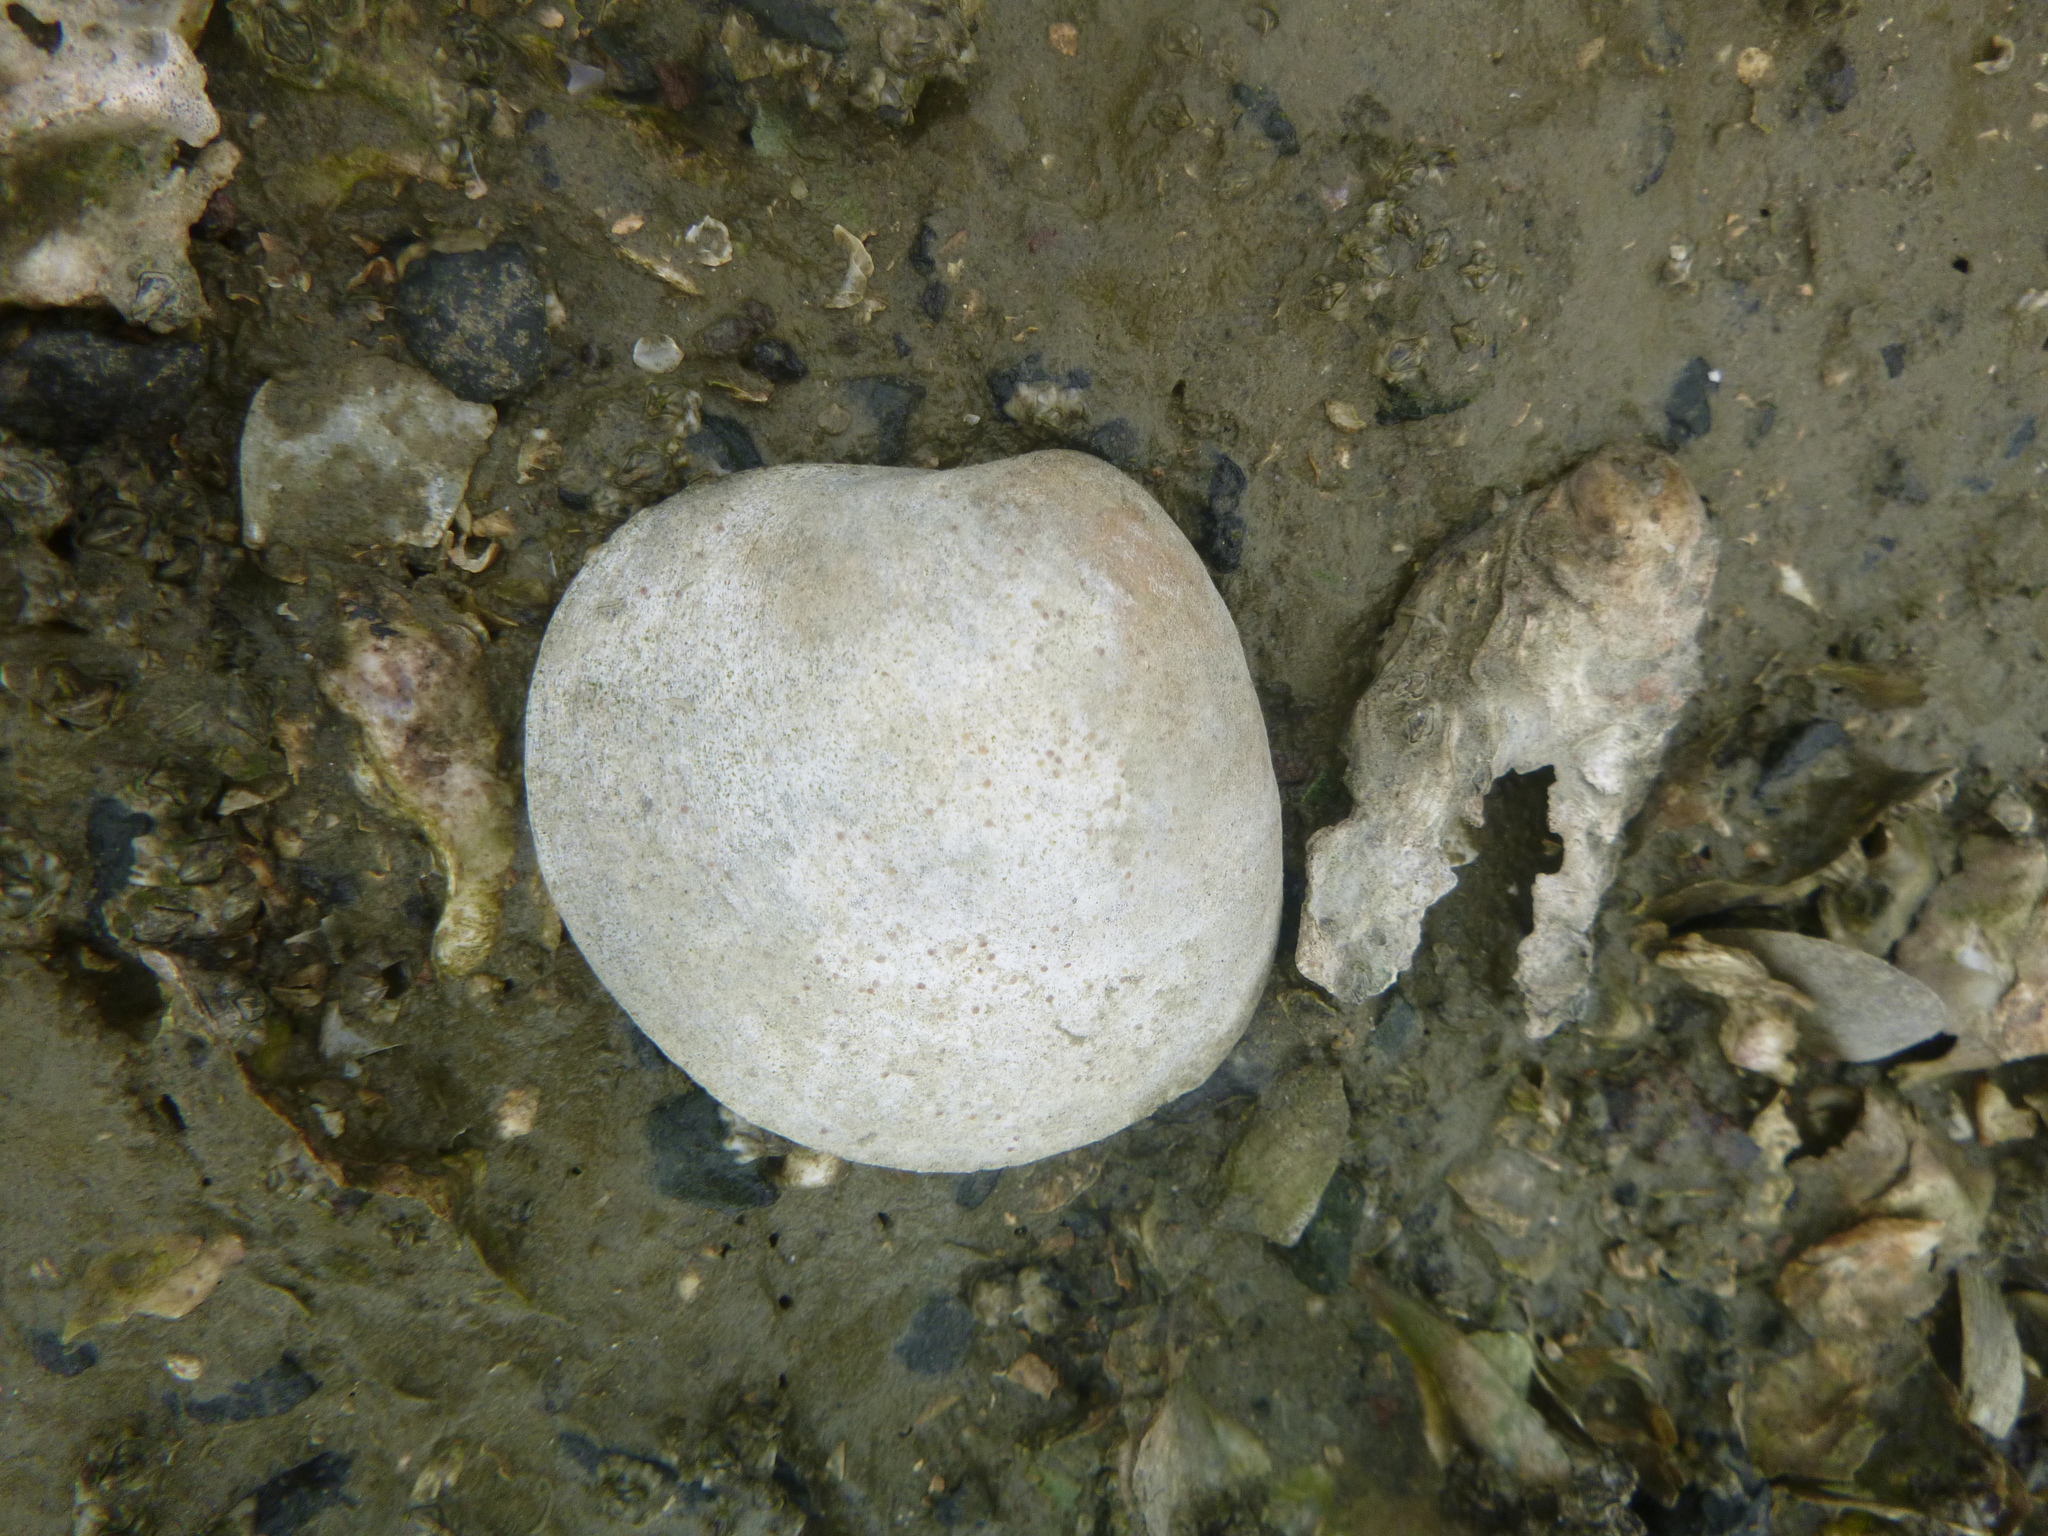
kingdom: Animalia
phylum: Mollusca
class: Bivalvia
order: Venerida
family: Mactridae
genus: Cyclomactra
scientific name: Cyclomactra ovata
